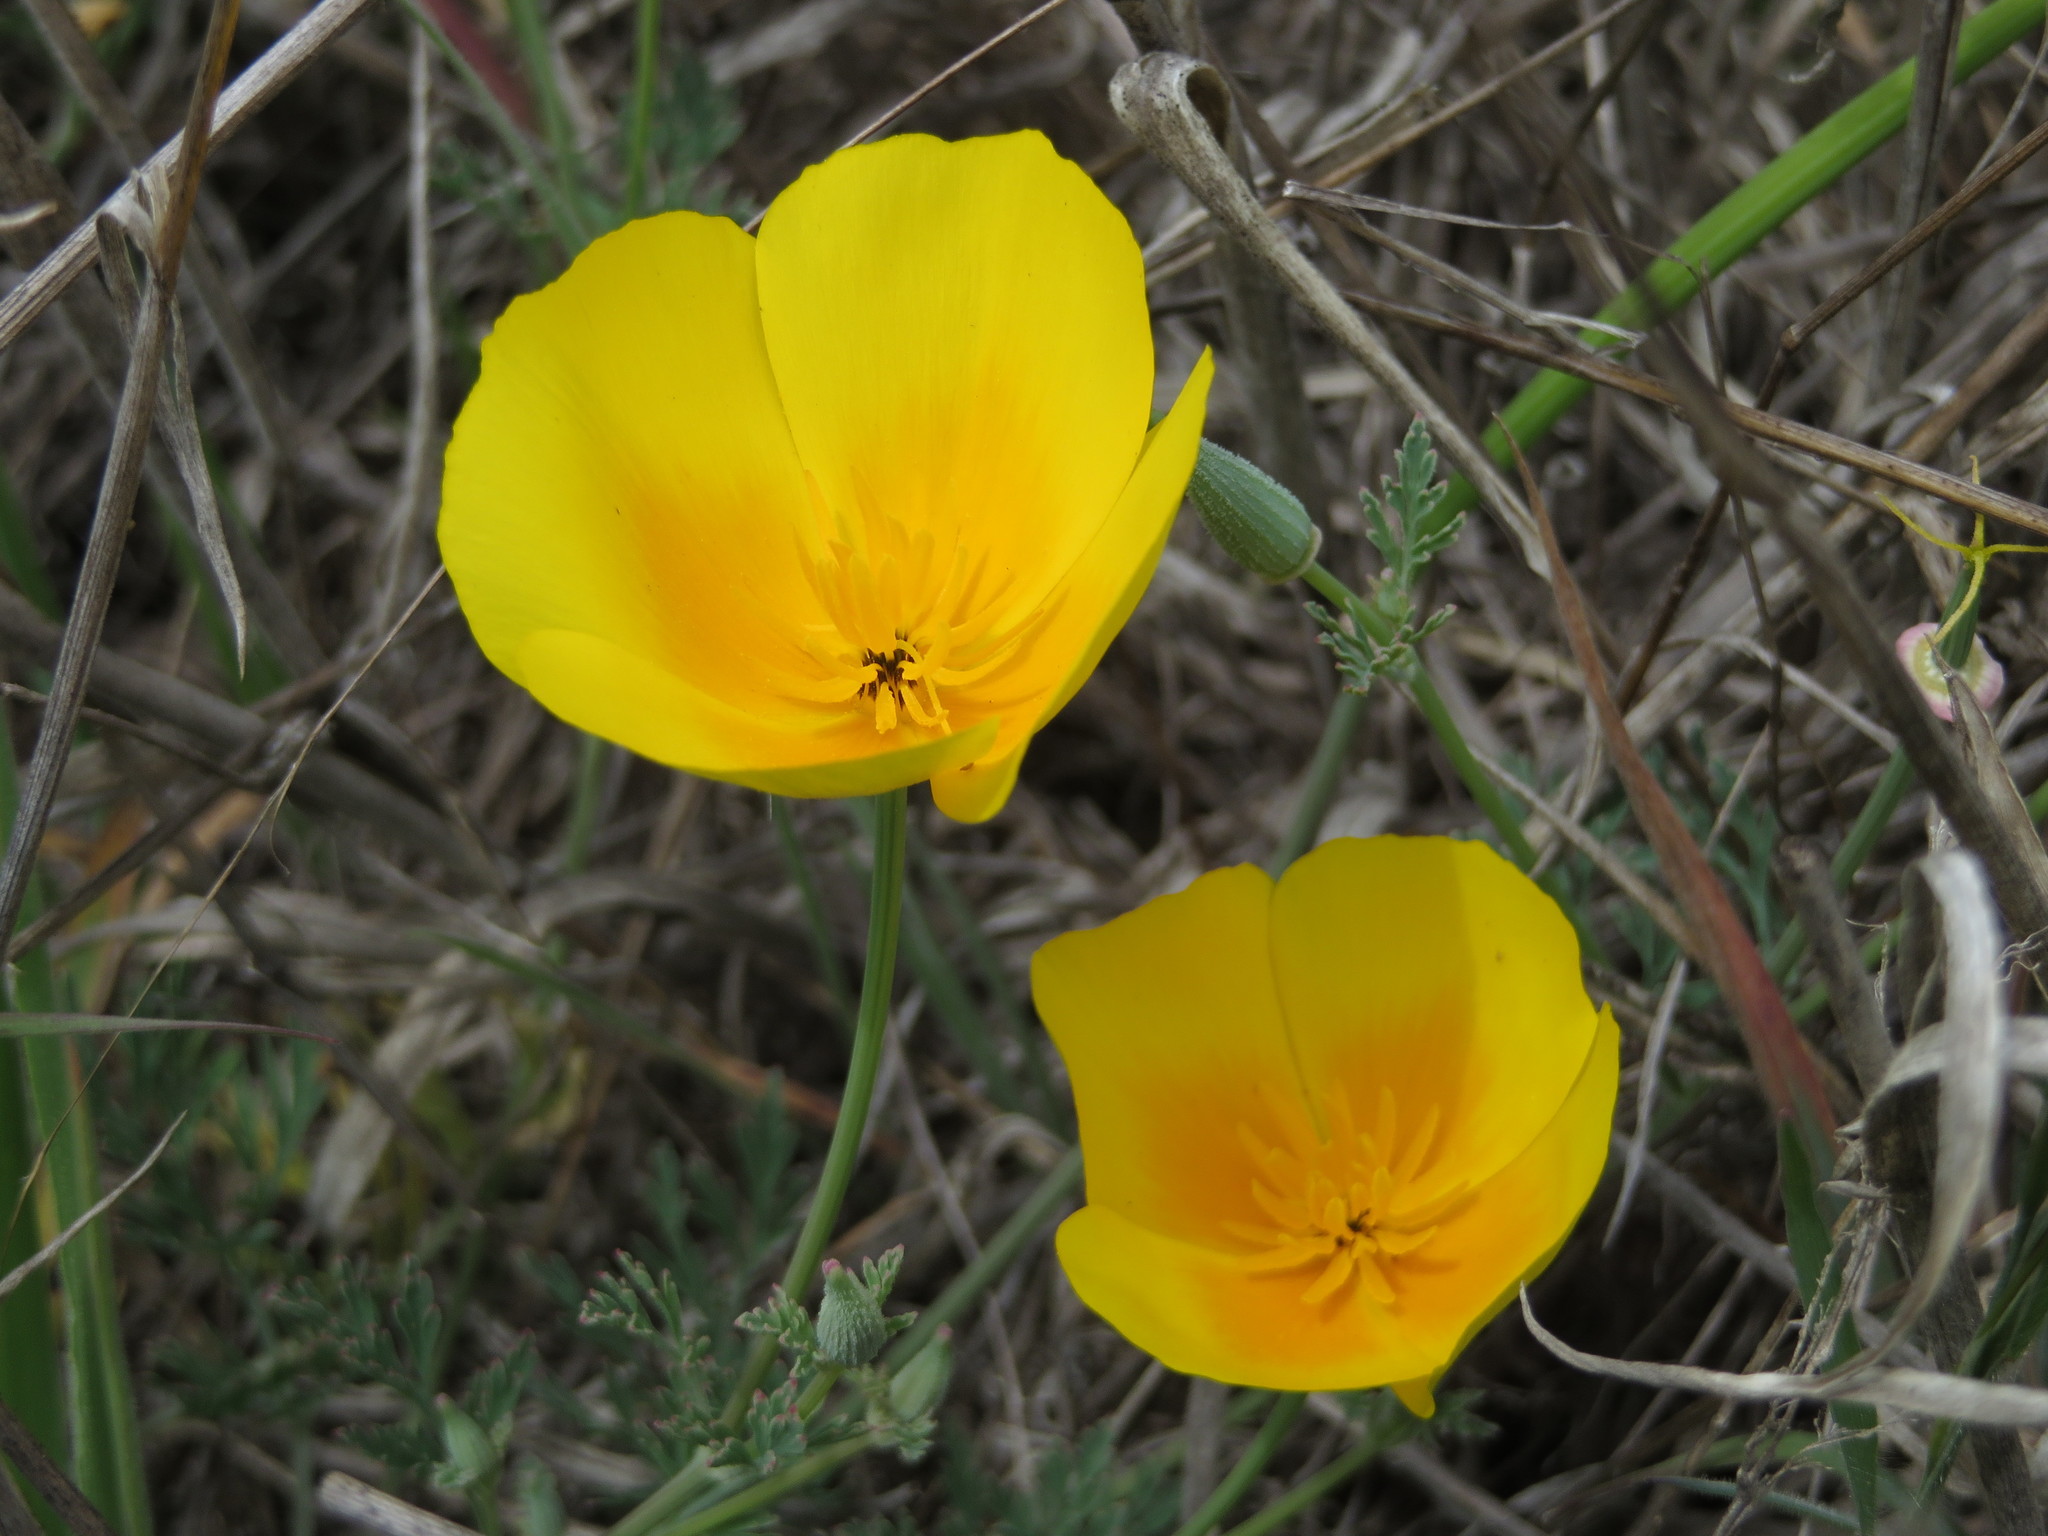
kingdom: Plantae
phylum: Tracheophyta
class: Magnoliopsida
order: Ranunculales
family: Papaveraceae
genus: Eschscholzia
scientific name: Eschscholzia californica
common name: California poppy
